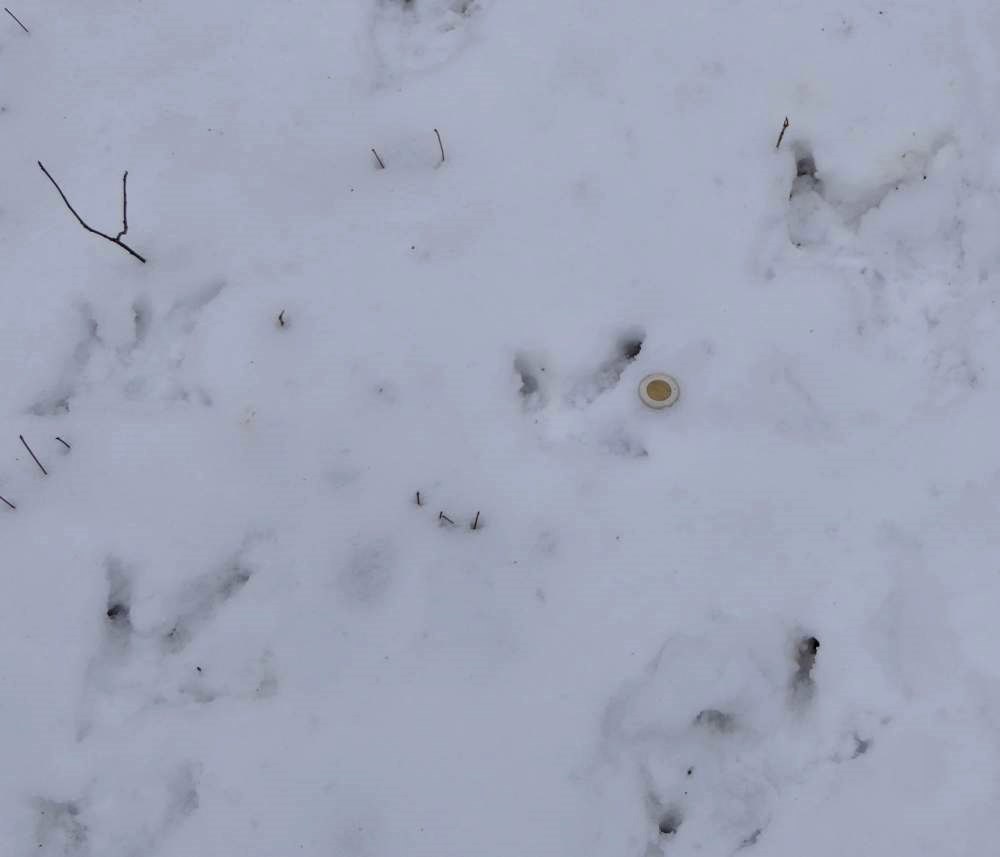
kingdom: Animalia
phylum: Chordata
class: Aves
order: Galliformes
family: Phasianidae
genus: Meleagris
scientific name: Meleagris gallopavo
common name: Wild turkey
